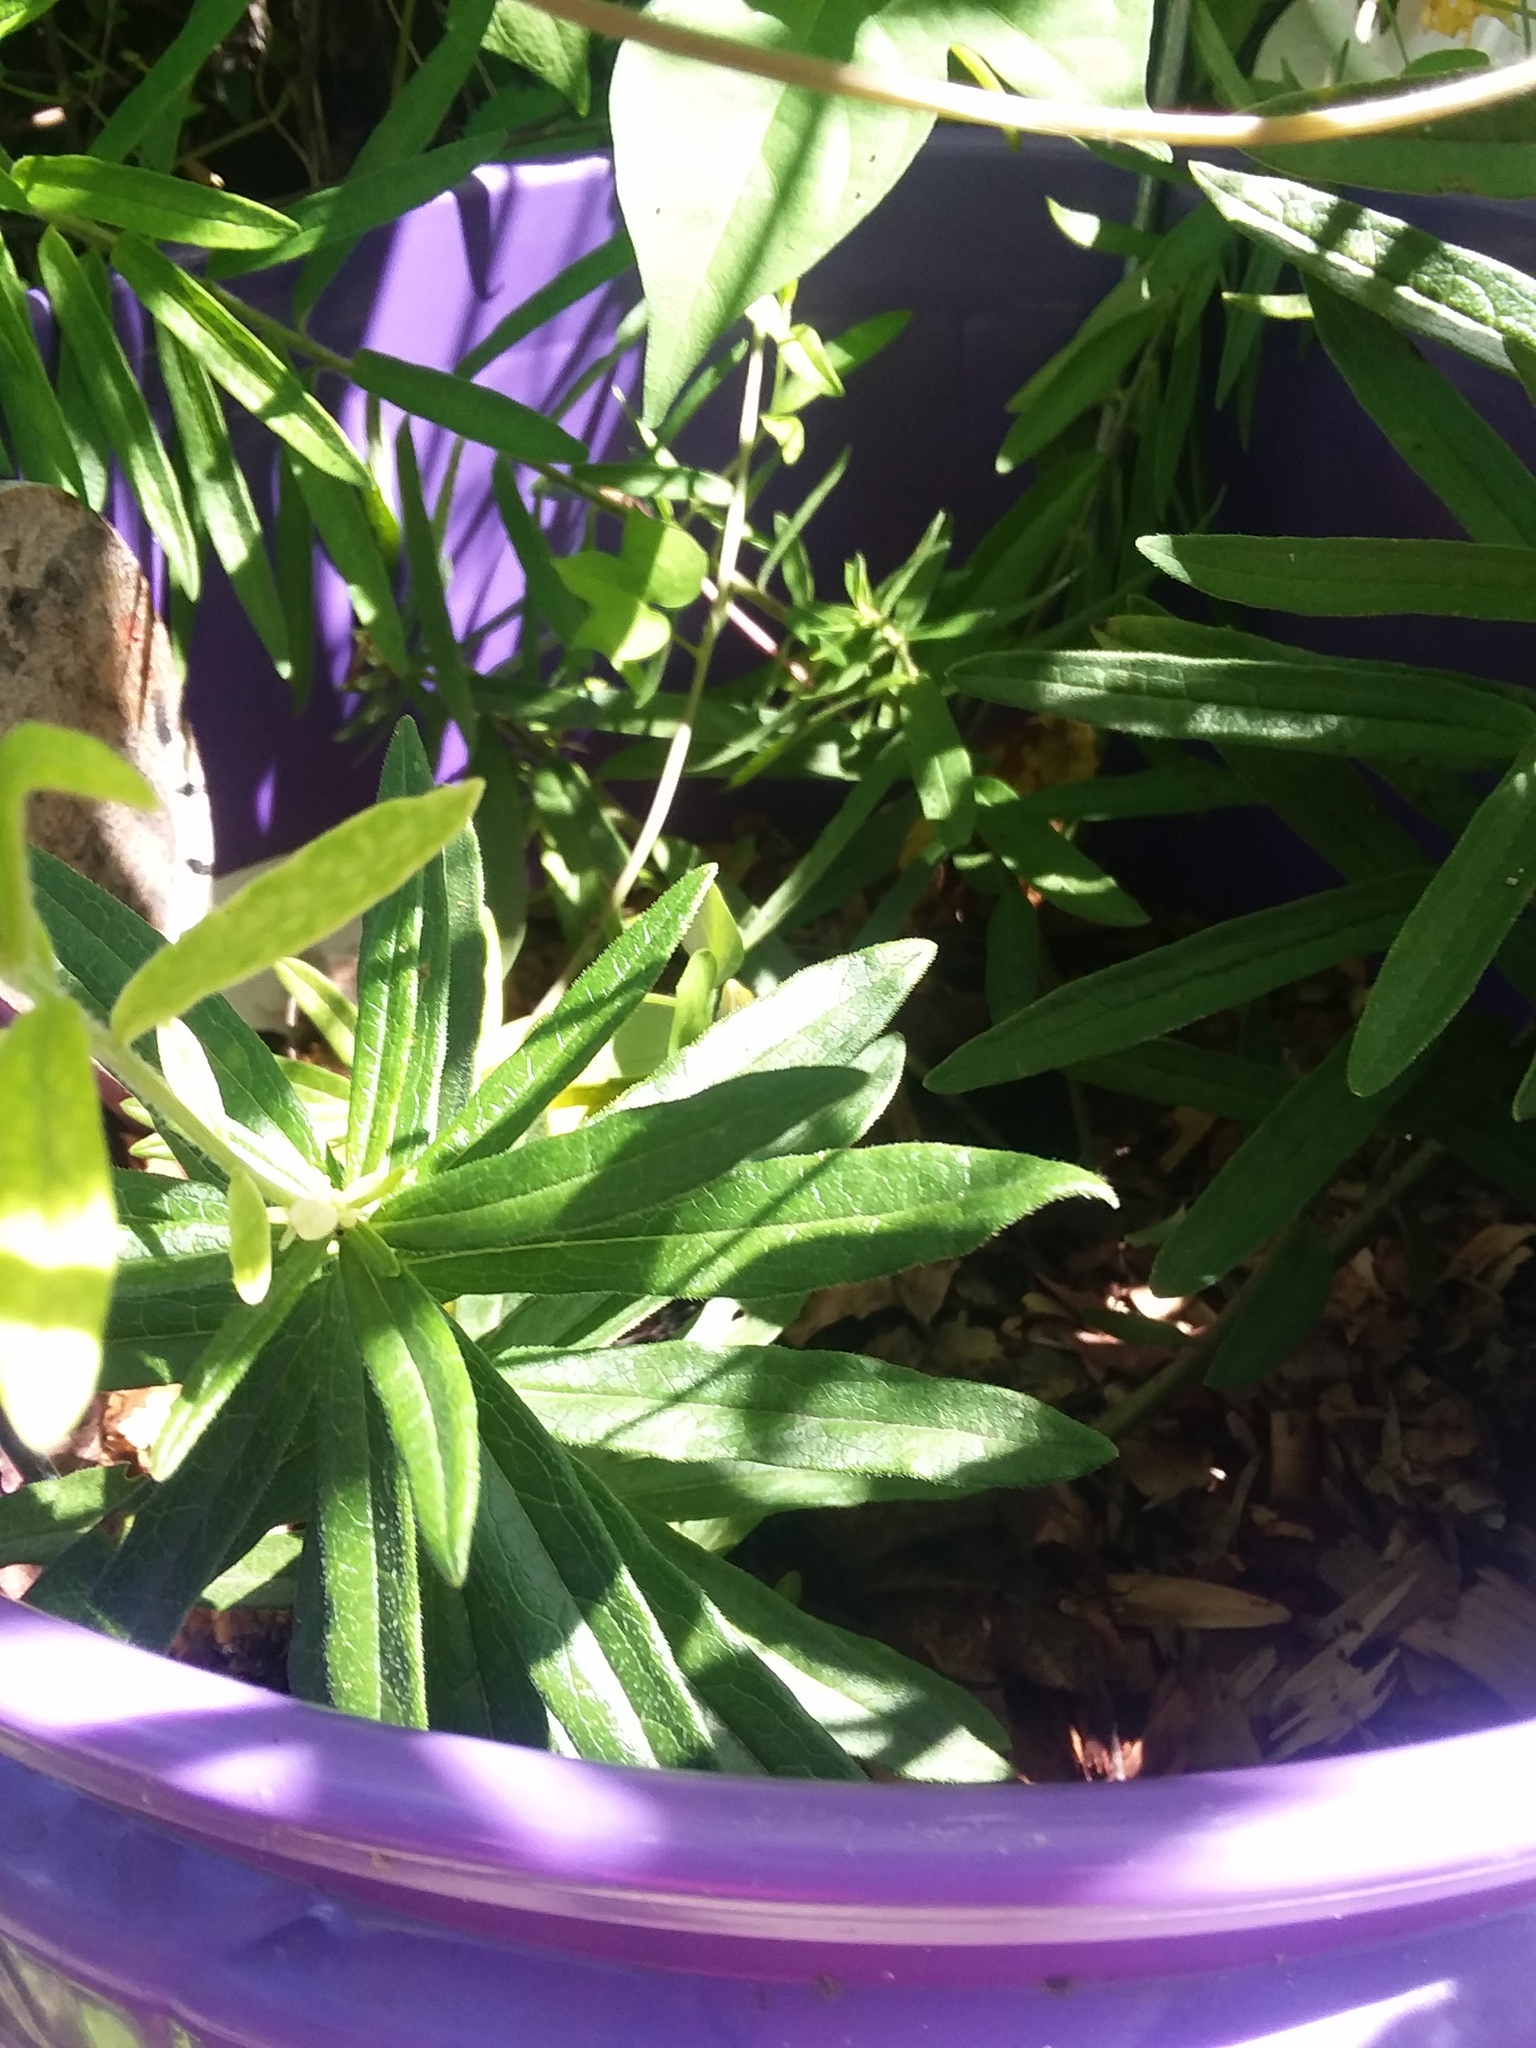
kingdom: Animalia
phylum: Chordata
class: Squamata
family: Dactyloidae
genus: Anolis
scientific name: Anolis carolinensis
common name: Green anole
